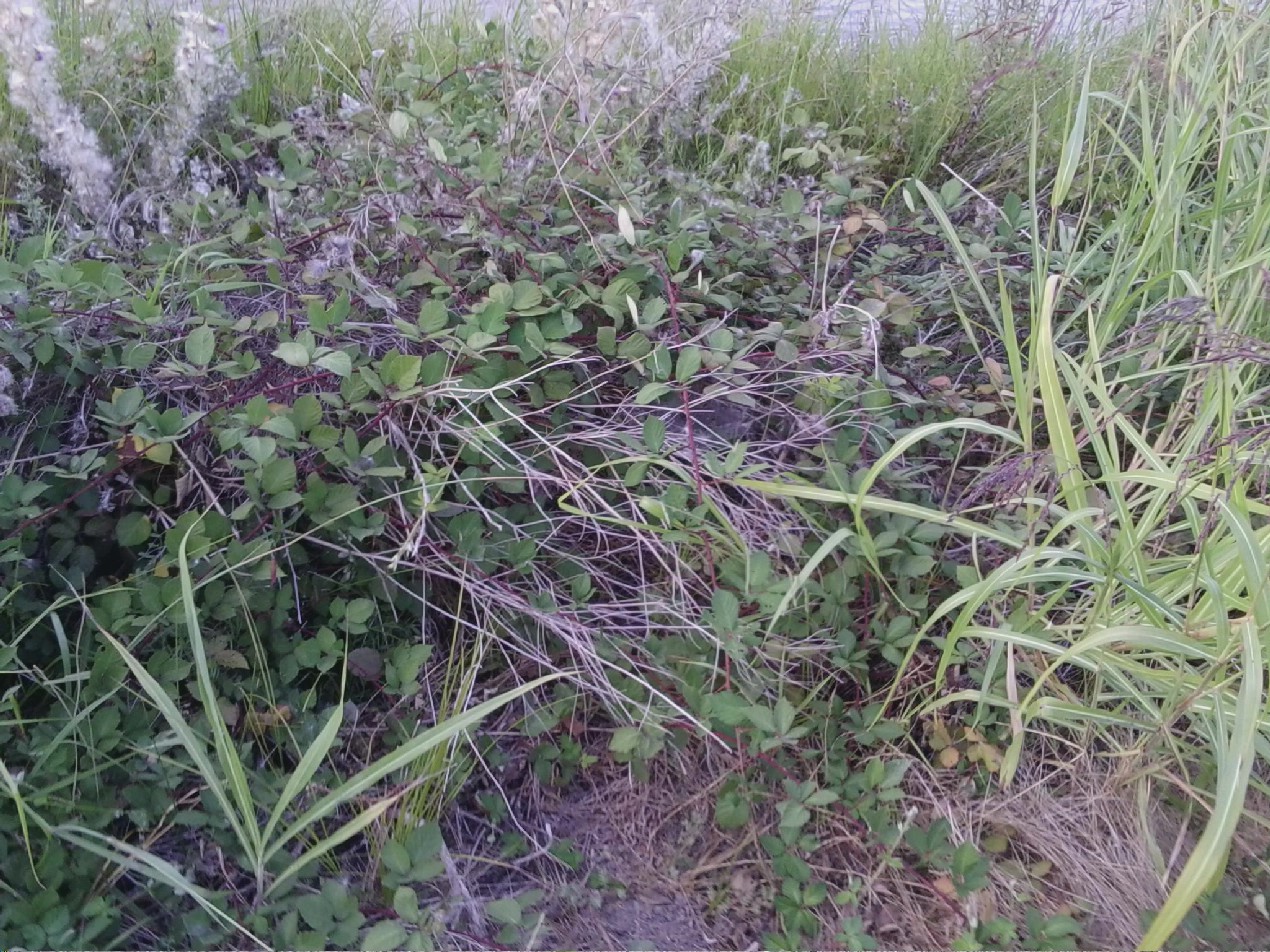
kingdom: Plantae
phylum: Tracheophyta
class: Magnoliopsida
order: Rosales
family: Rosaceae
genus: Rubus
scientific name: Rubus armeniacus
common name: Himalayan blackberry
